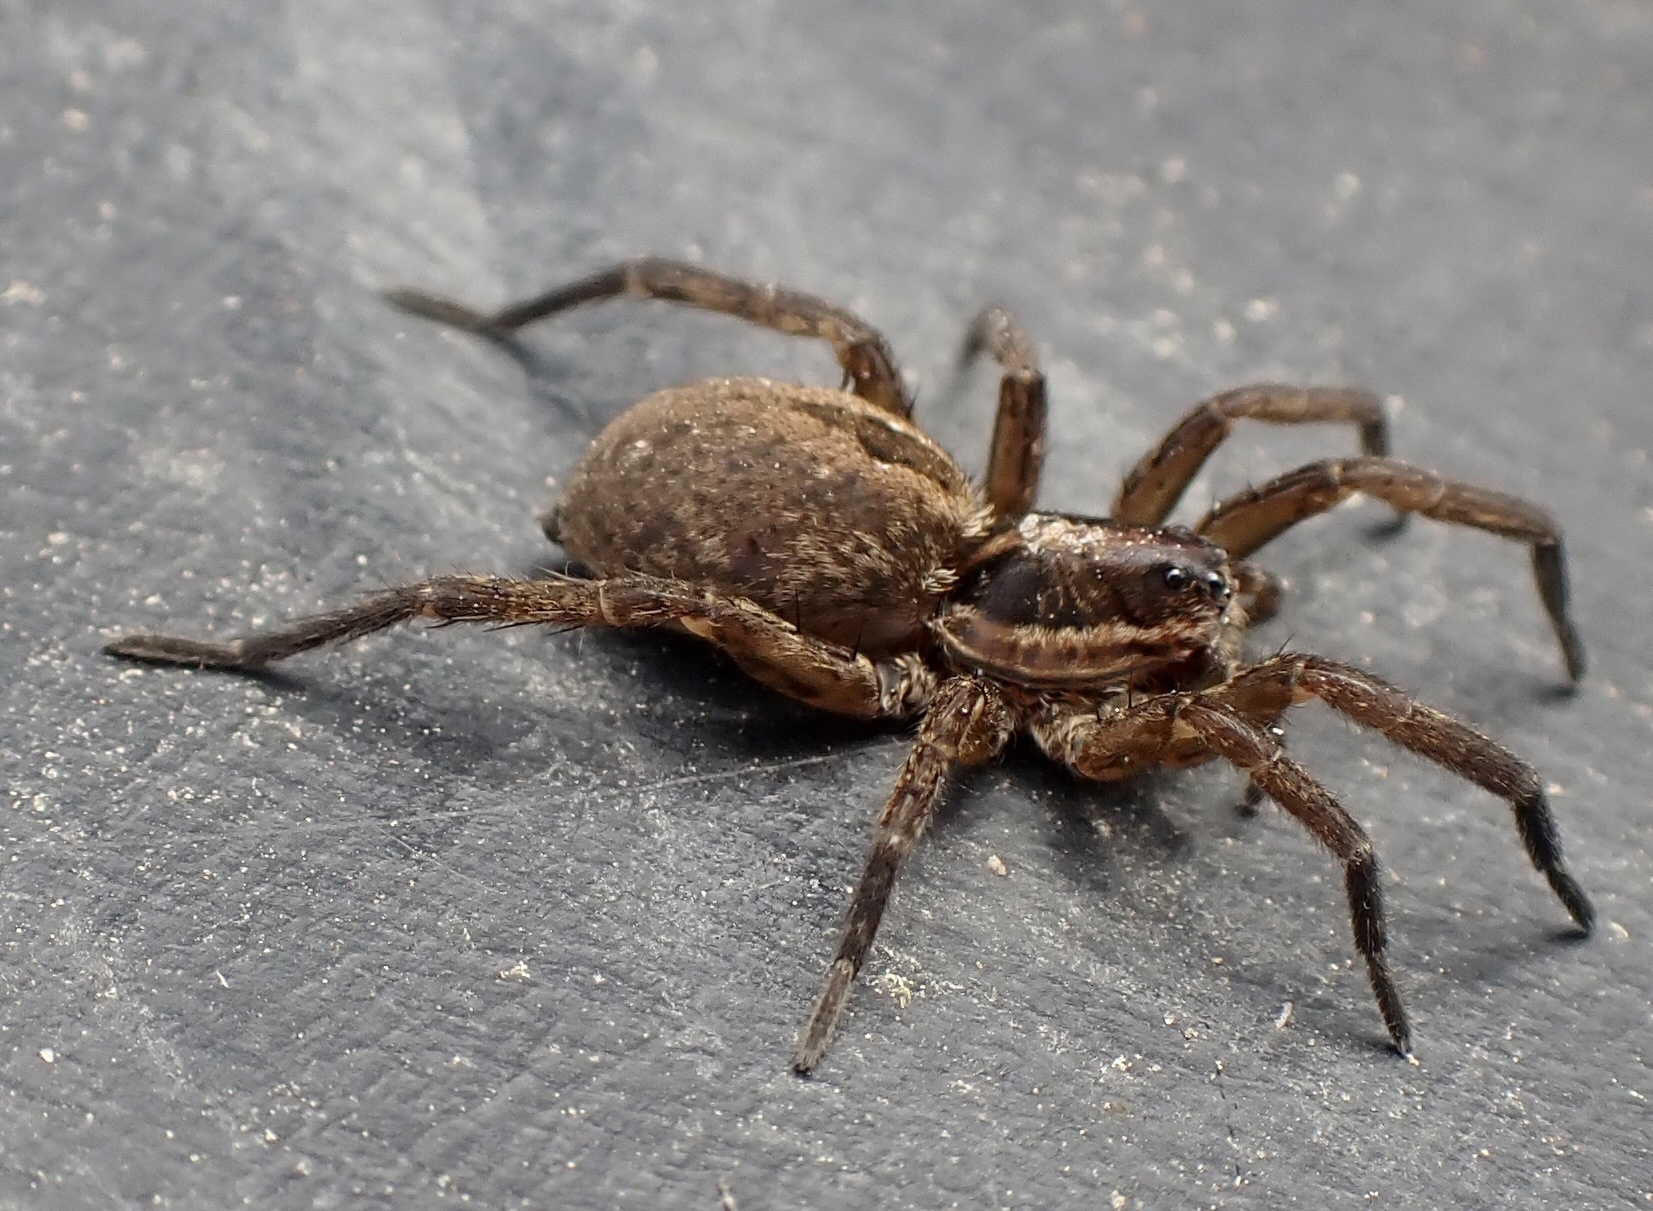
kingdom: Animalia
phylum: Arthropoda
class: Arachnida
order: Araneae
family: Lycosidae
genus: Tigrosa
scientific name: Tigrosa annexa
